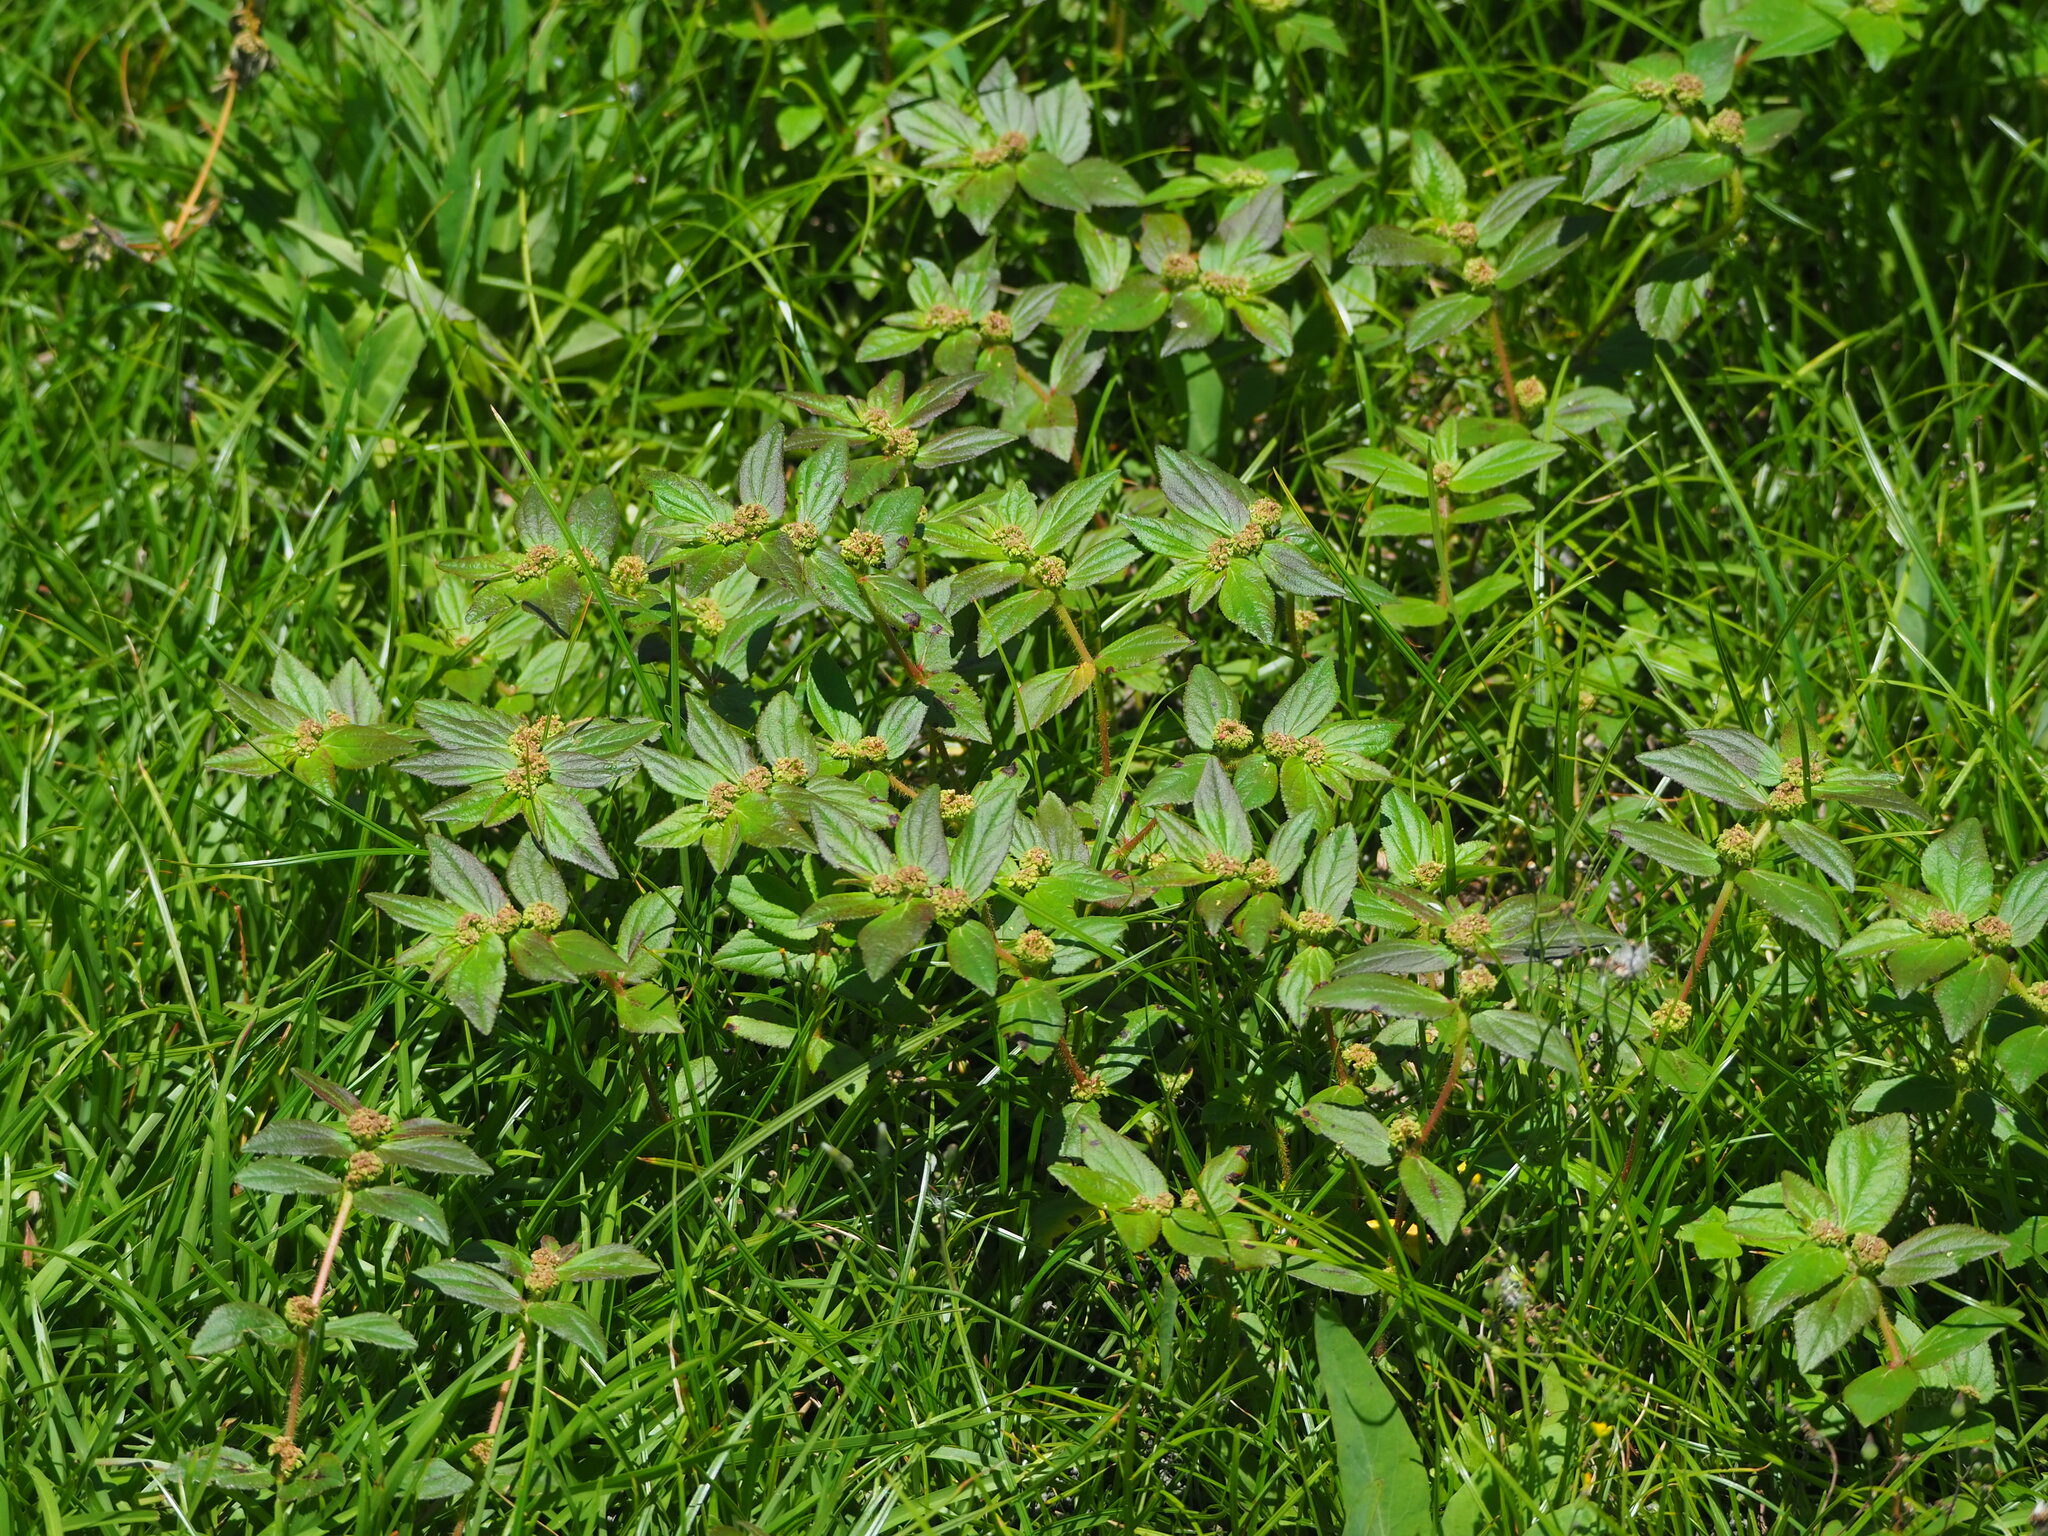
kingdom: Plantae
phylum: Tracheophyta
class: Magnoliopsida
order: Malpighiales
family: Euphorbiaceae
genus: Euphorbia
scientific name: Euphorbia hirta
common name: Pillpod sandmat
